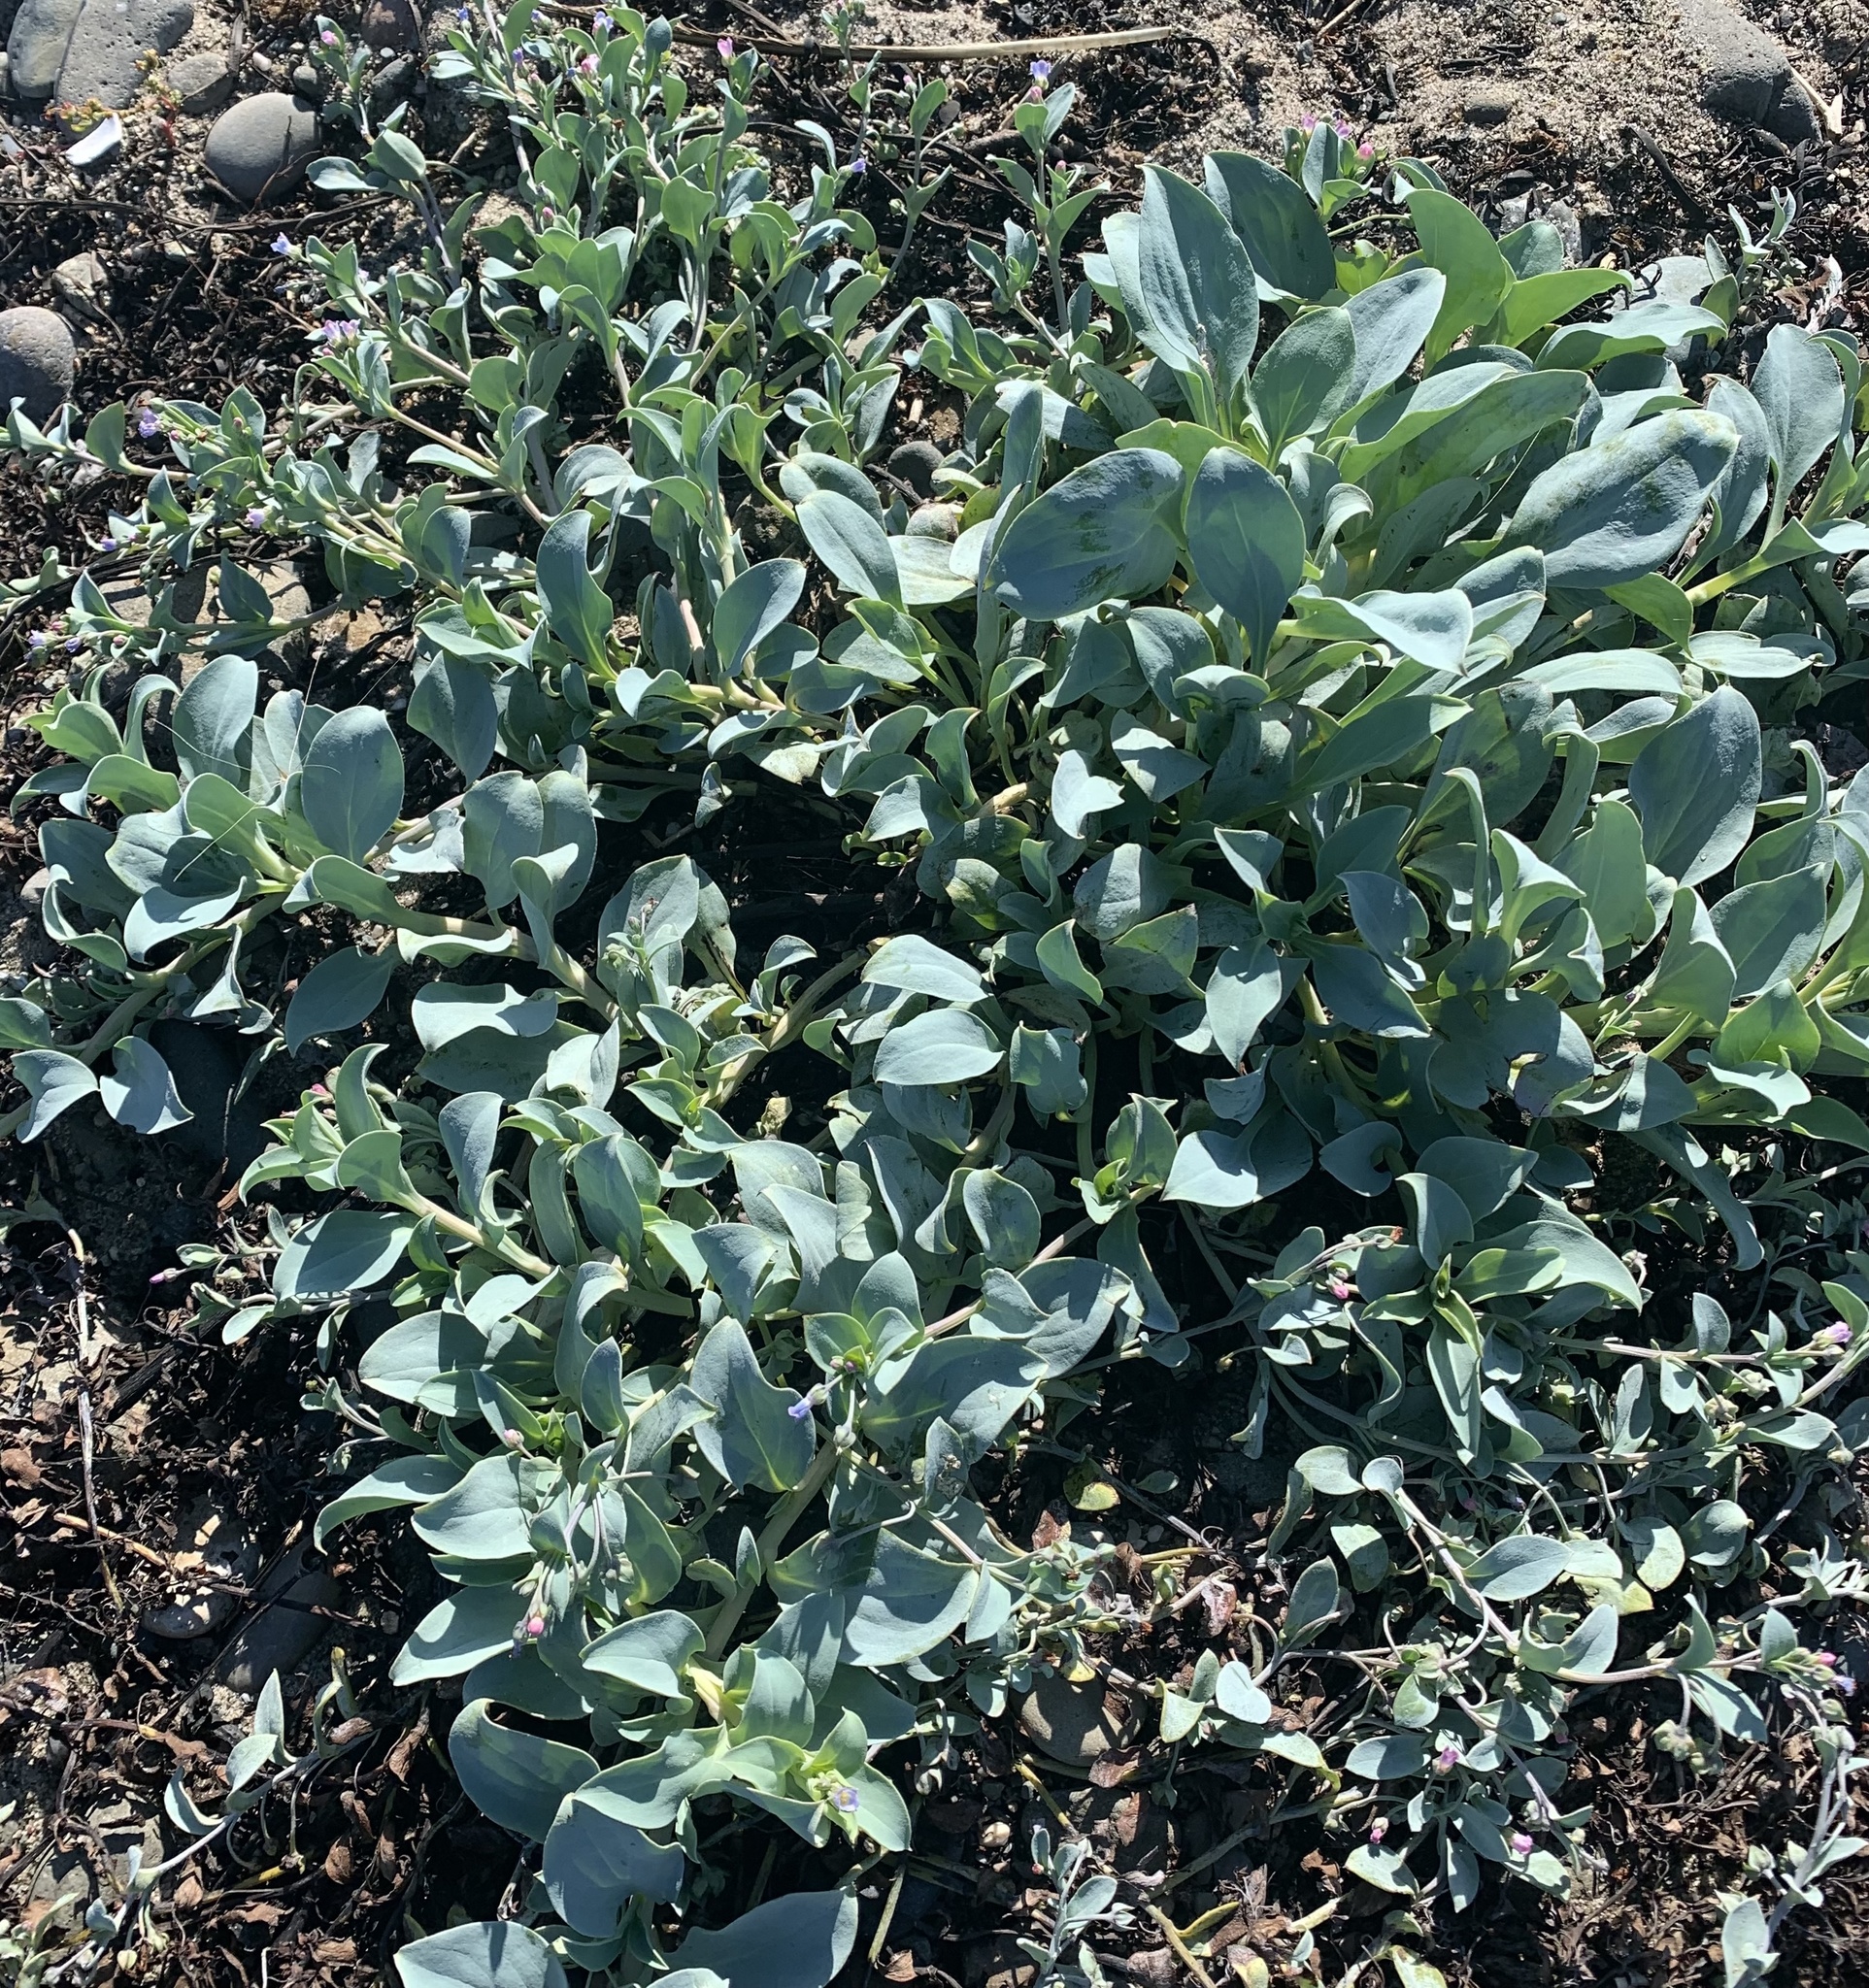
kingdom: Plantae
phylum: Tracheophyta
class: Magnoliopsida
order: Boraginales
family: Boraginaceae
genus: Mertensia
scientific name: Mertensia maritima
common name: Oysterplant
